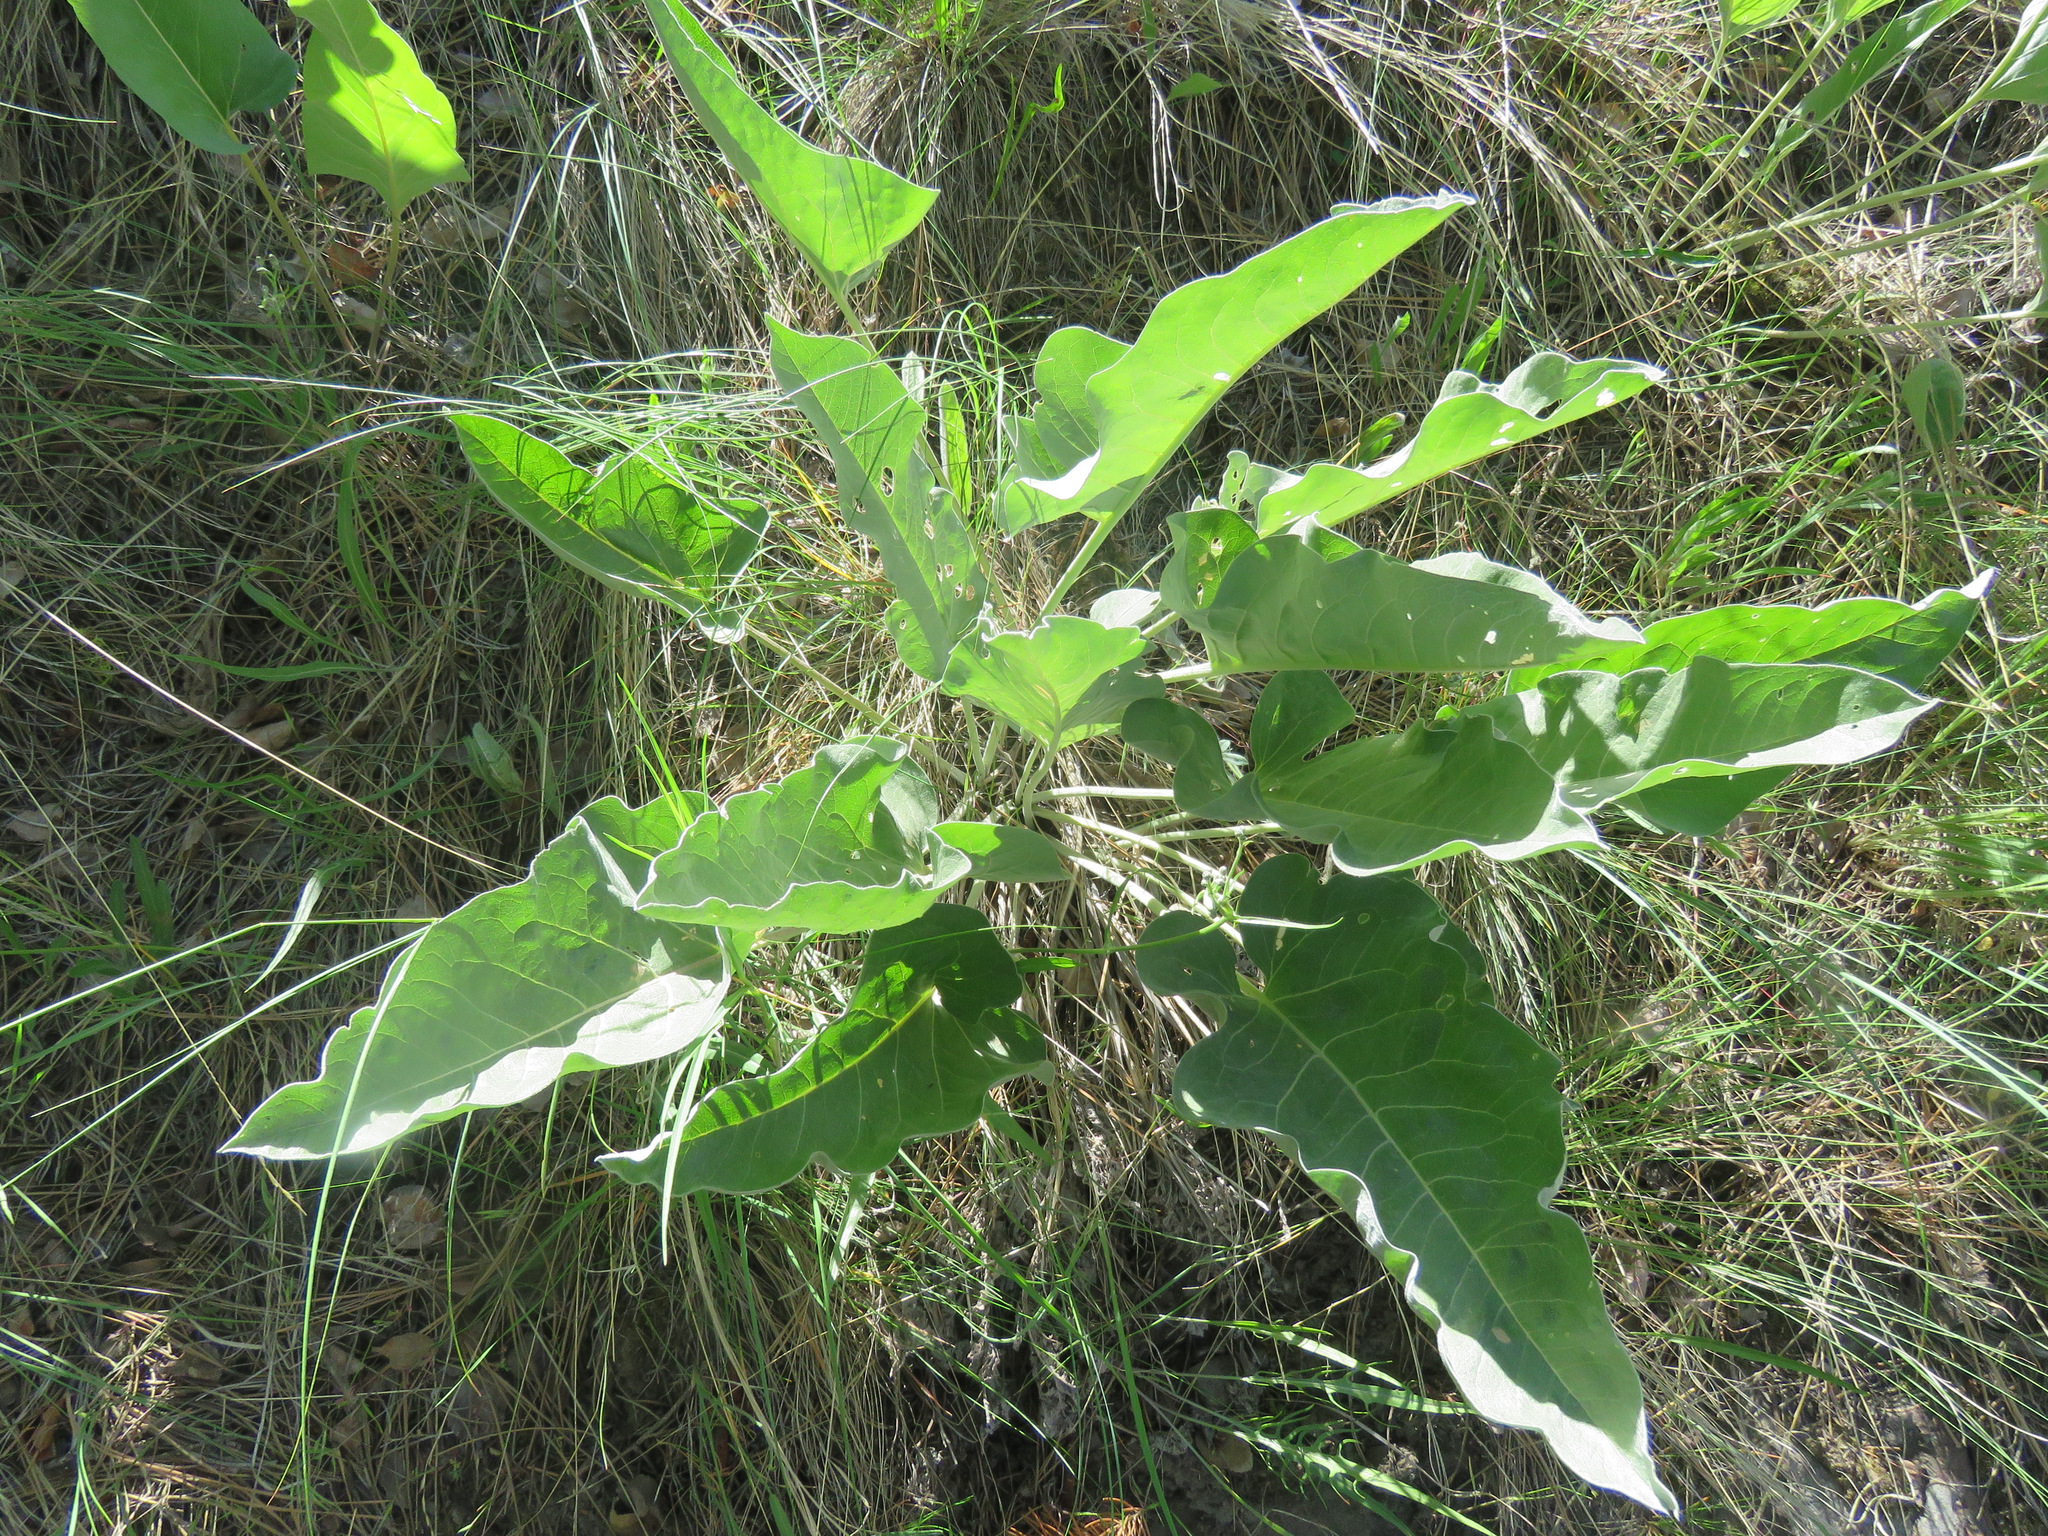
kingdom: Plantae
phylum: Tracheophyta
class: Magnoliopsida
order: Asterales
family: Asteraceae
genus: Wyethia
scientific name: Wyethia sagittata
